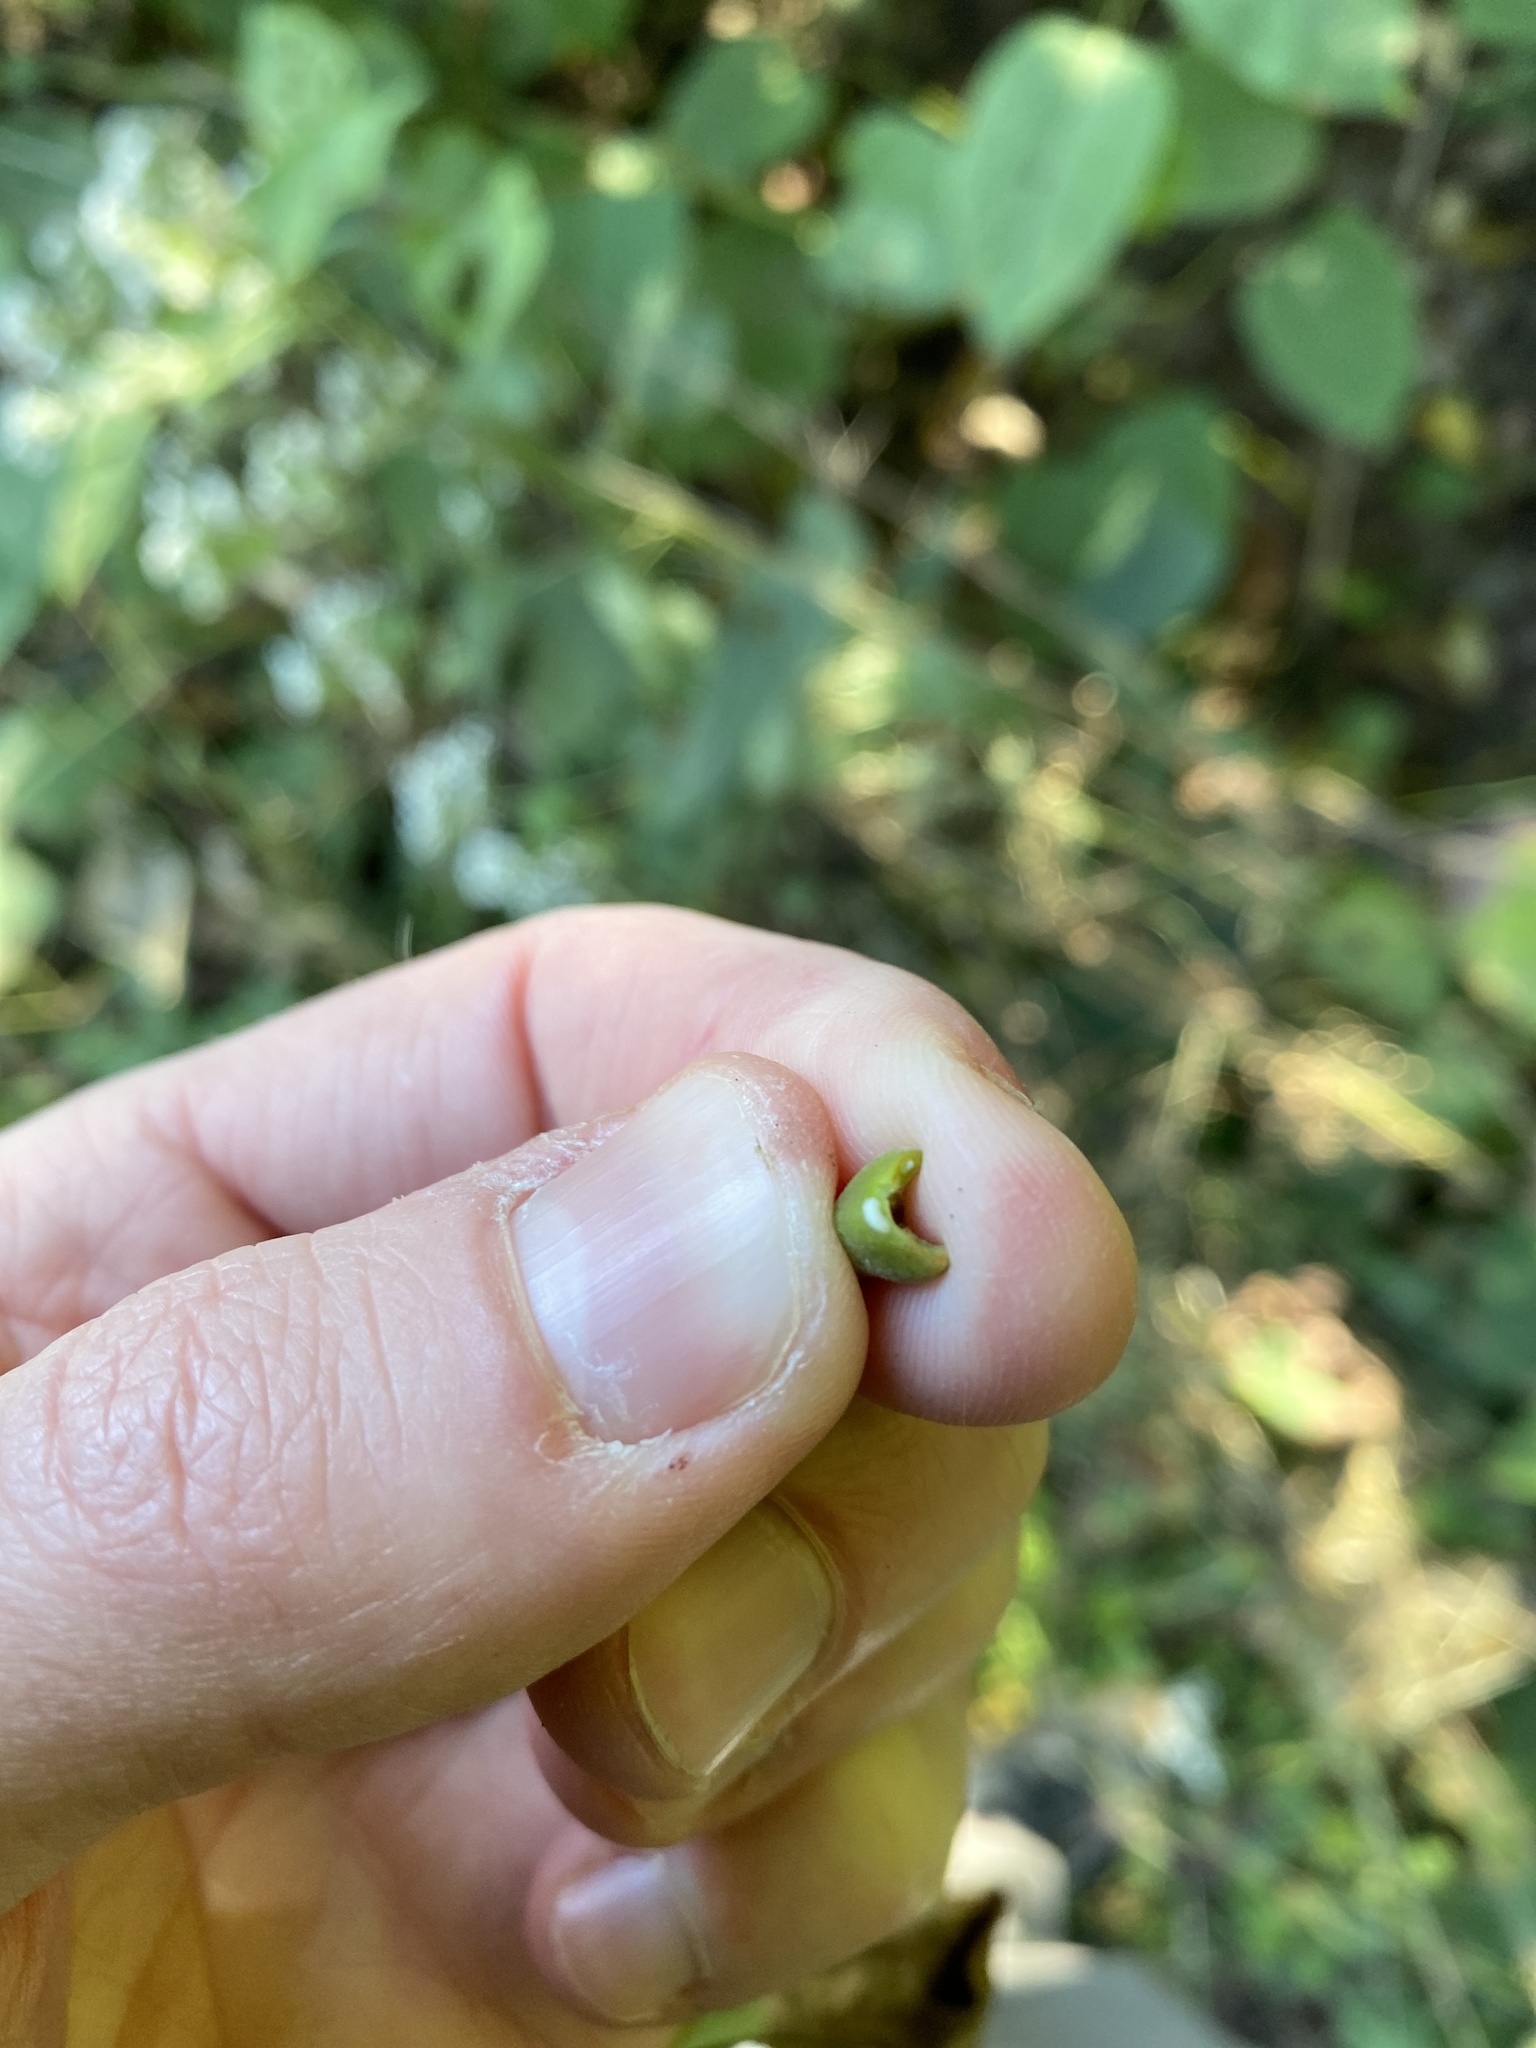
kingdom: Plantae
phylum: Tracheophyta
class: Magnoliopsida
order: Sapindales
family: Sapindaceae
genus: Acer
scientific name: Acer platanoides
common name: Norway maple
